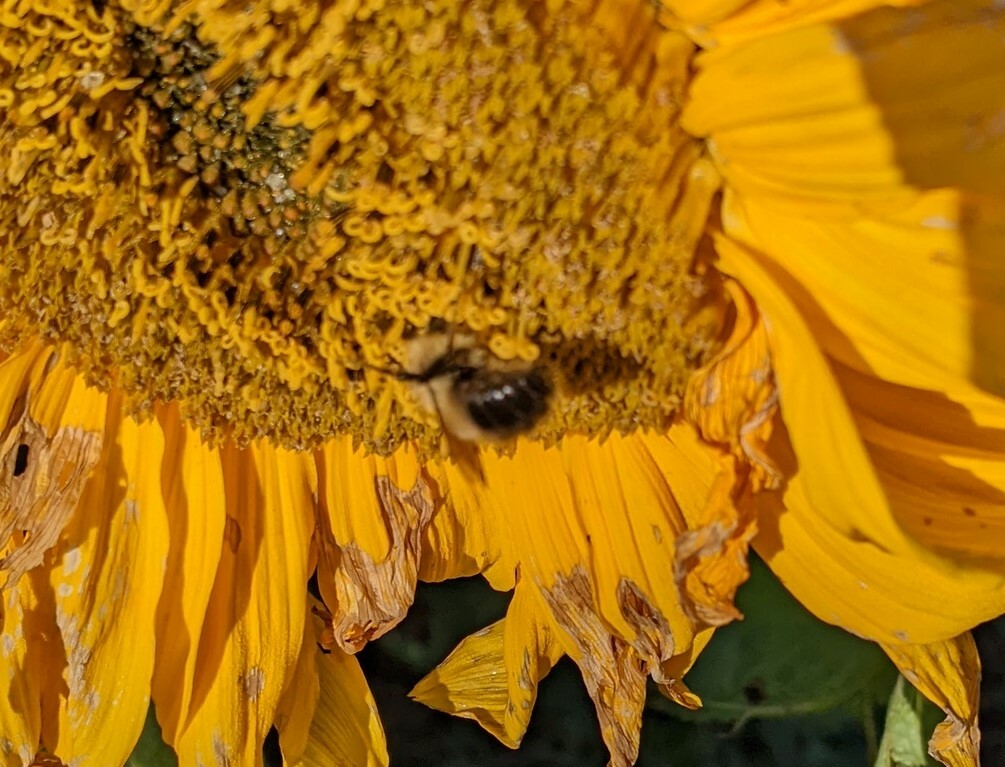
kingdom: Animalia
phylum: Arthropoda
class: Insecta
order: Hymenoptera
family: Apidae
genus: Pyrobombus
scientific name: Pyrobombus
